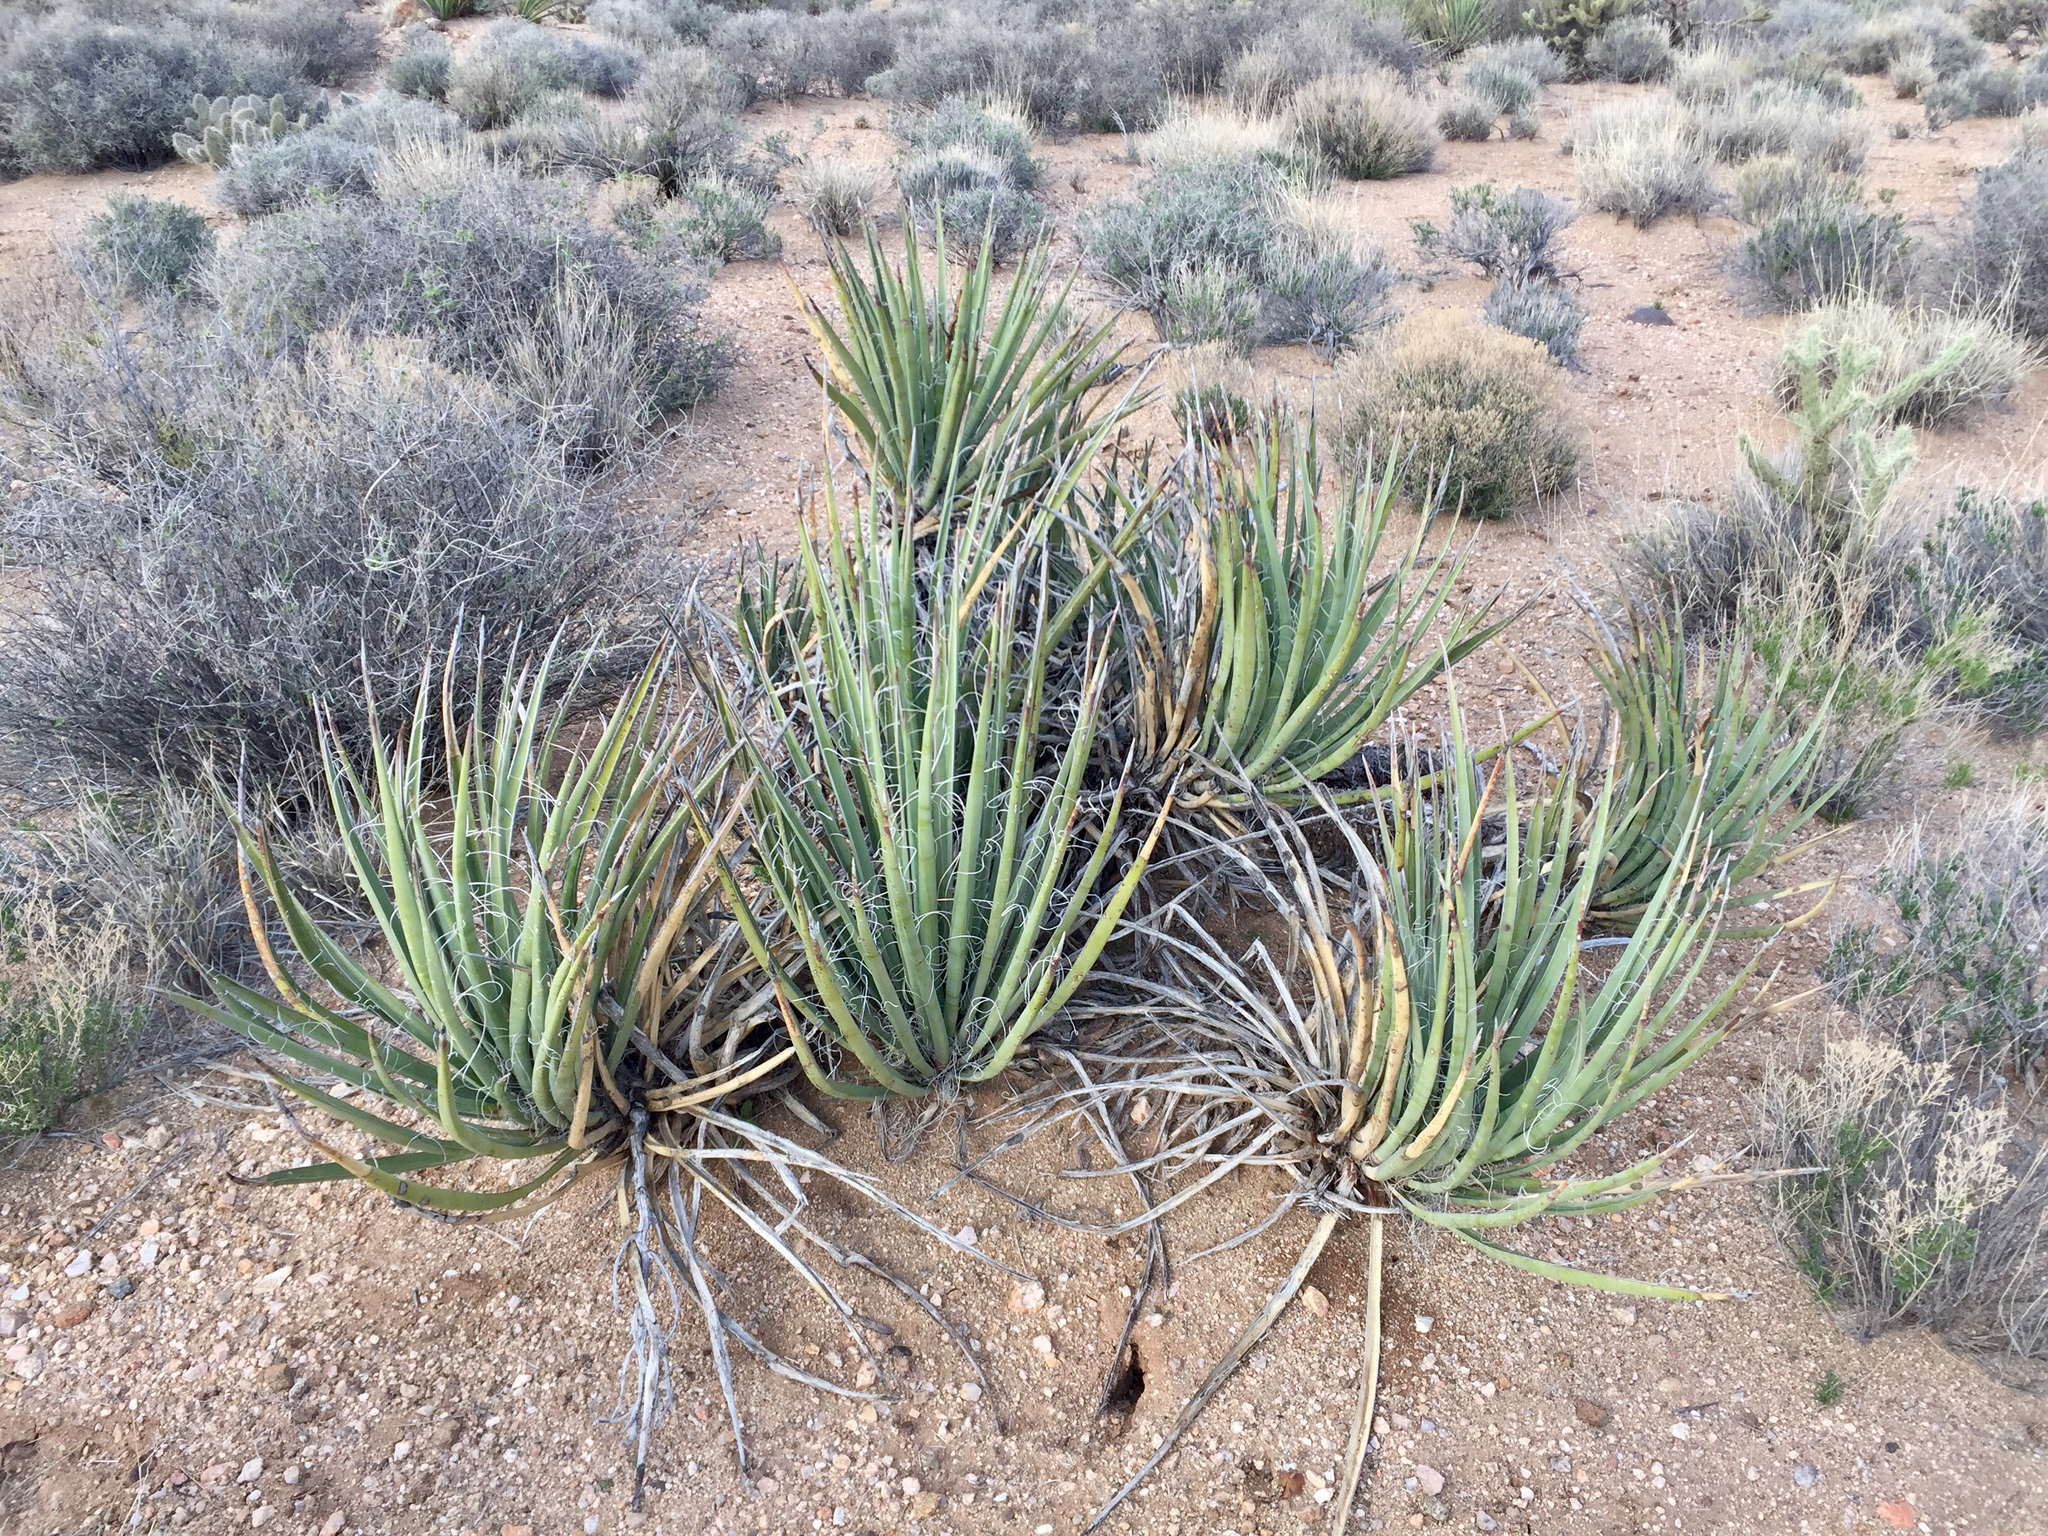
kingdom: Plantae
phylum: Tracheophyta
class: Liliopsida
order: Asparagales
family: Asparagaceae
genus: Yucca
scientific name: Yucca baccata
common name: Banana yucca
